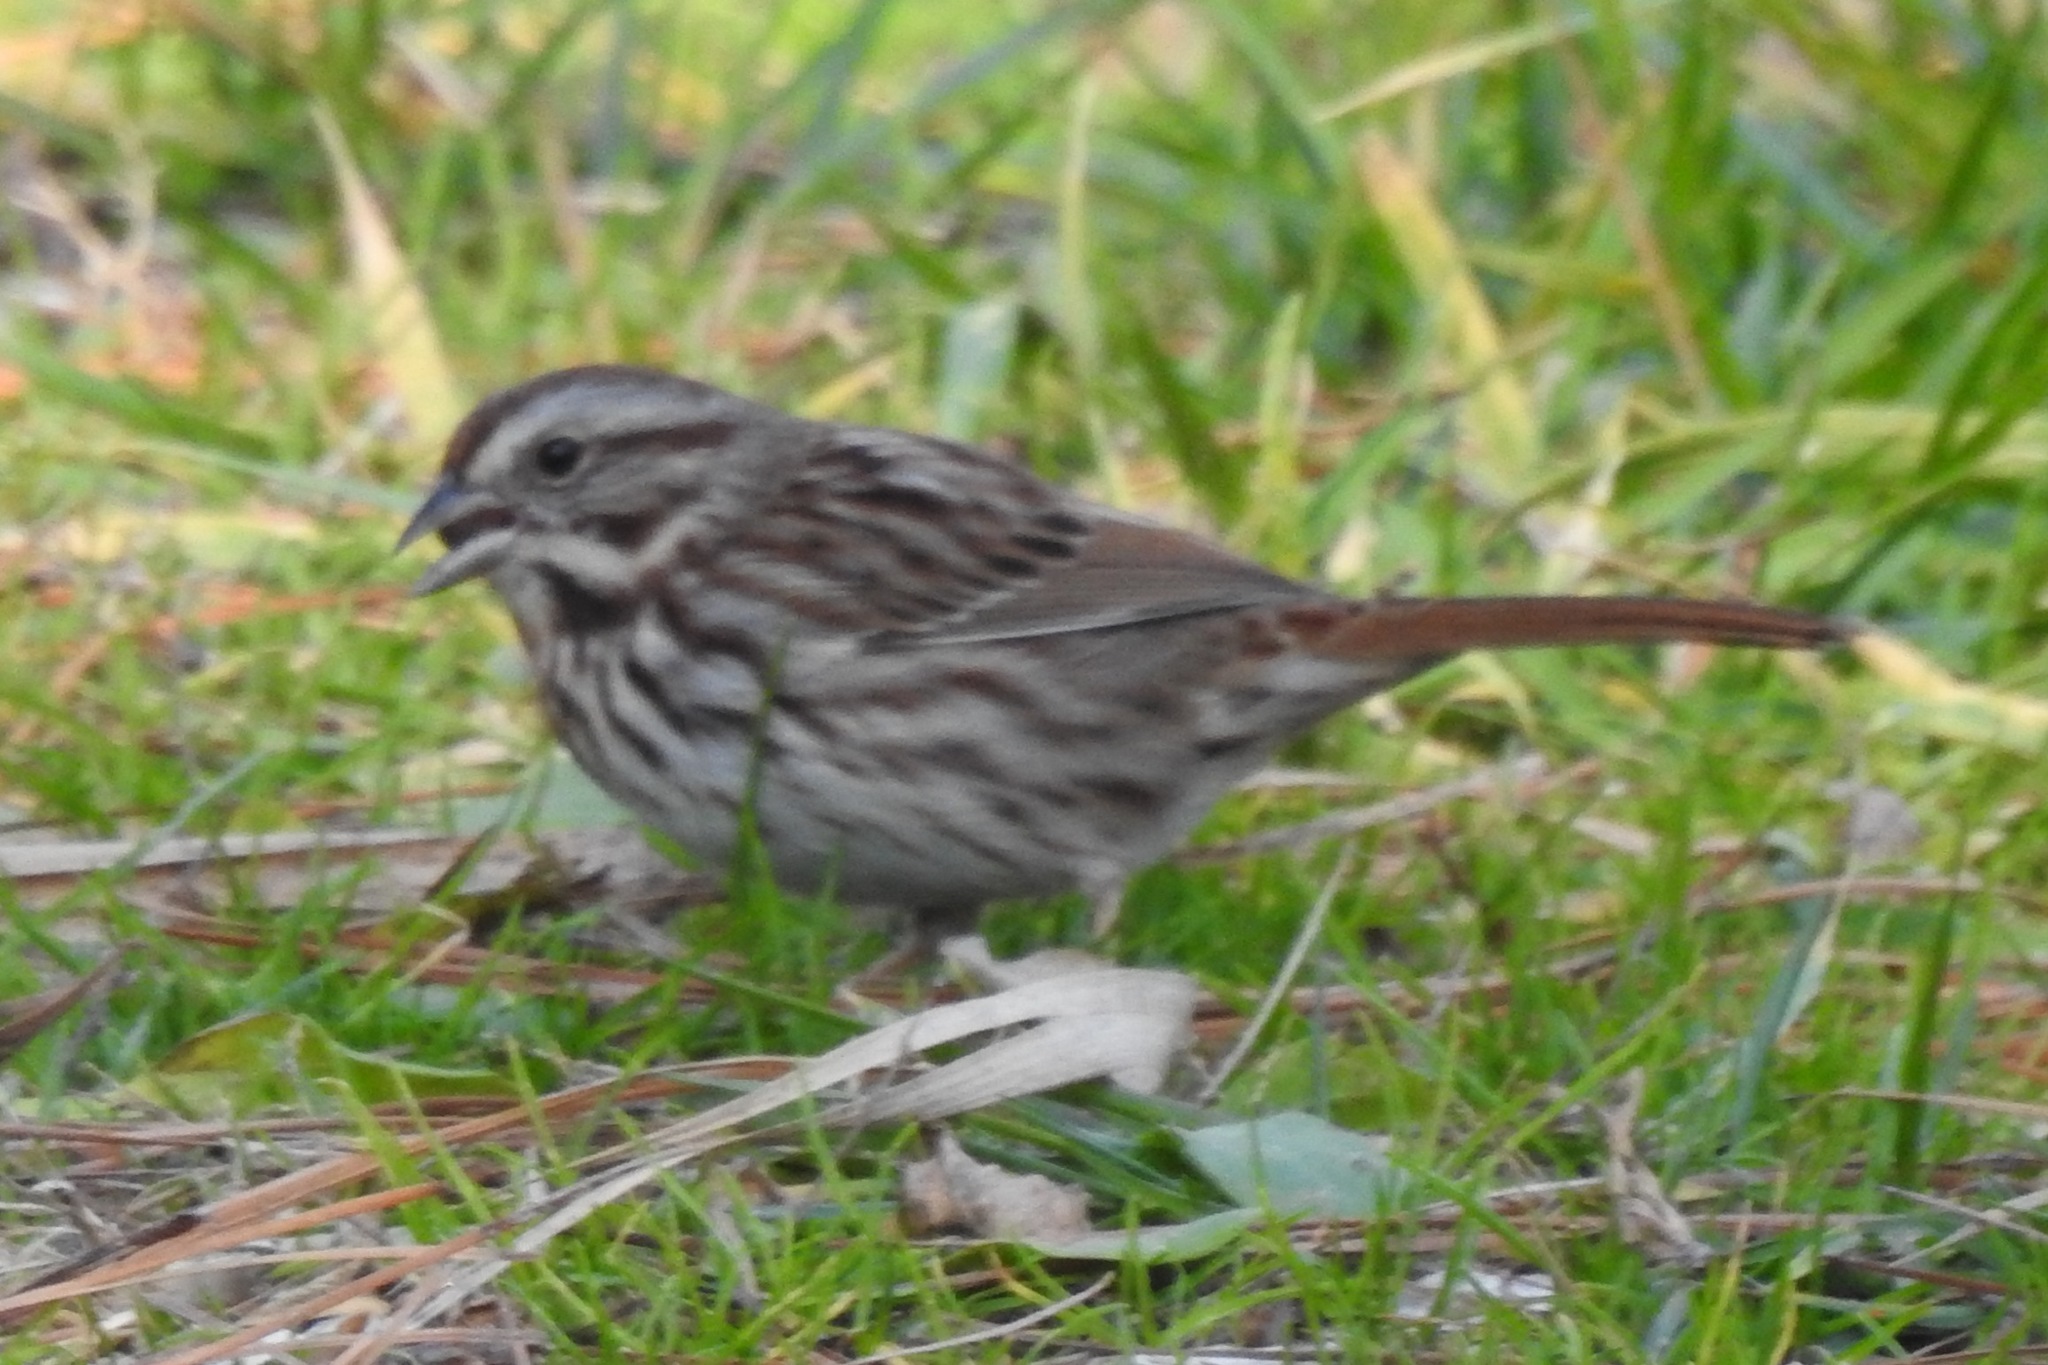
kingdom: Animalia
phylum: Chordata
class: Aves
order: Passeriformes
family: Passerellidae
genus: Melospiza
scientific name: Melospiza melodia
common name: Song sparrow
